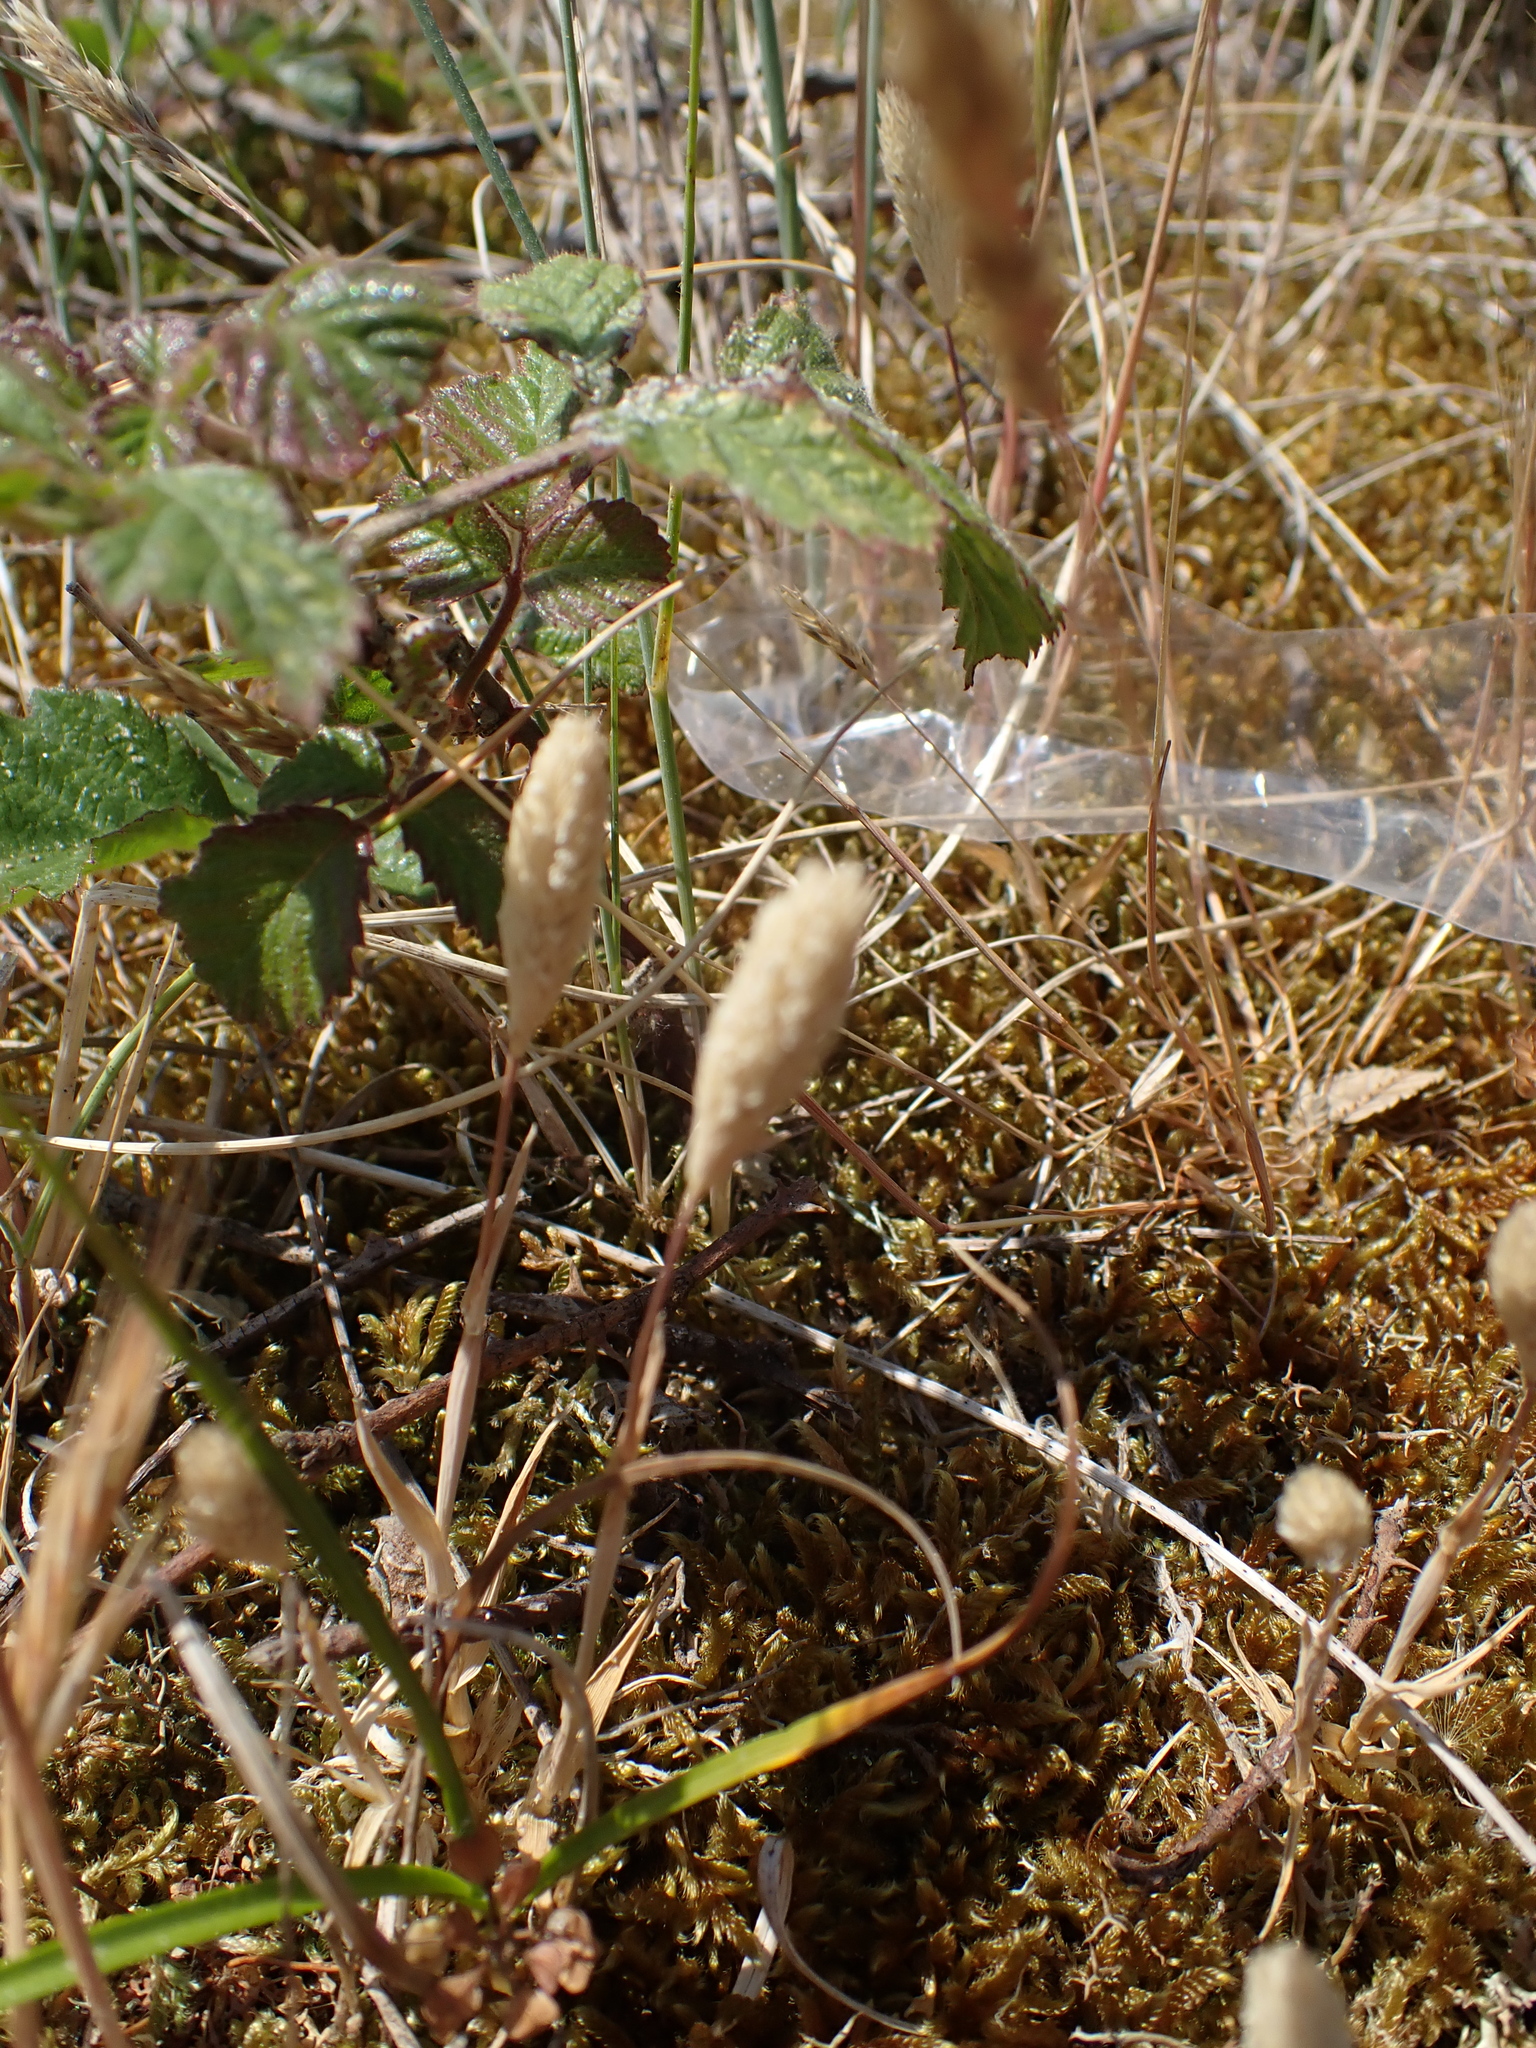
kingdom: Plantae
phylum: Tracheophyta
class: Liliopsida
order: Poales
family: Poaceae
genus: Phleum
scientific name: Phleum arenarium
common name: Sand cat's-tail
